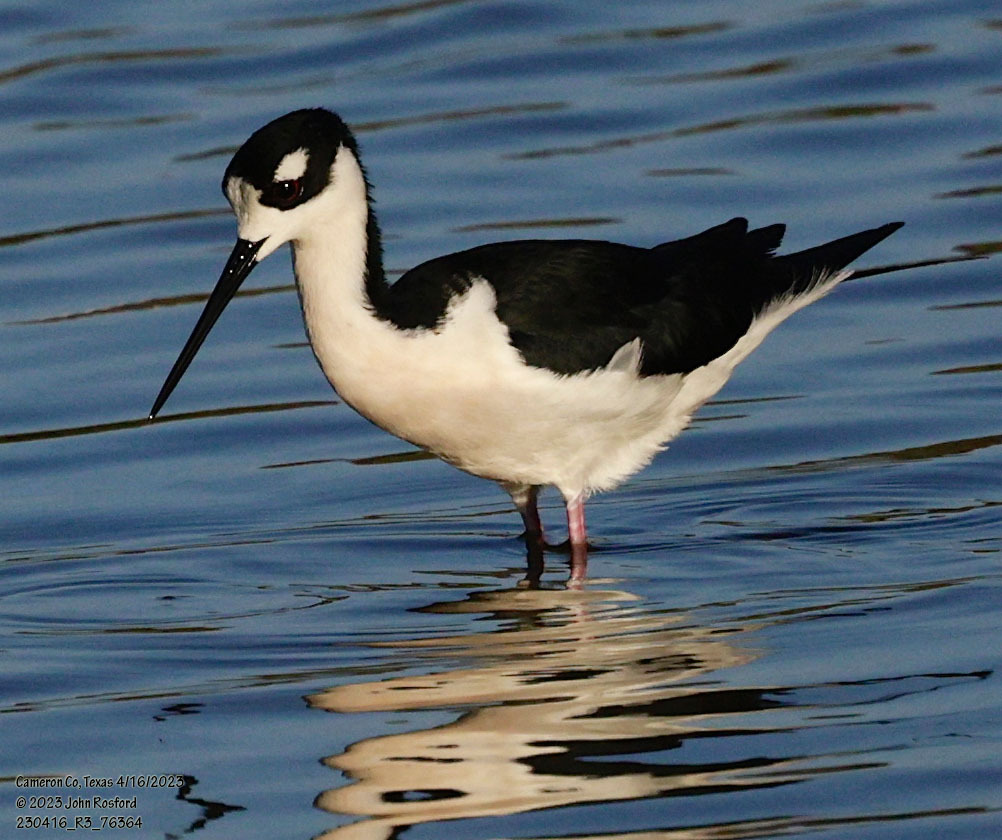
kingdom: Animalia
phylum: Chordata
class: Aves
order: Charadriiformes
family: Recurvirostridae
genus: Himantopus
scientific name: Himantopus mexicanus
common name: Black-necked stilt
